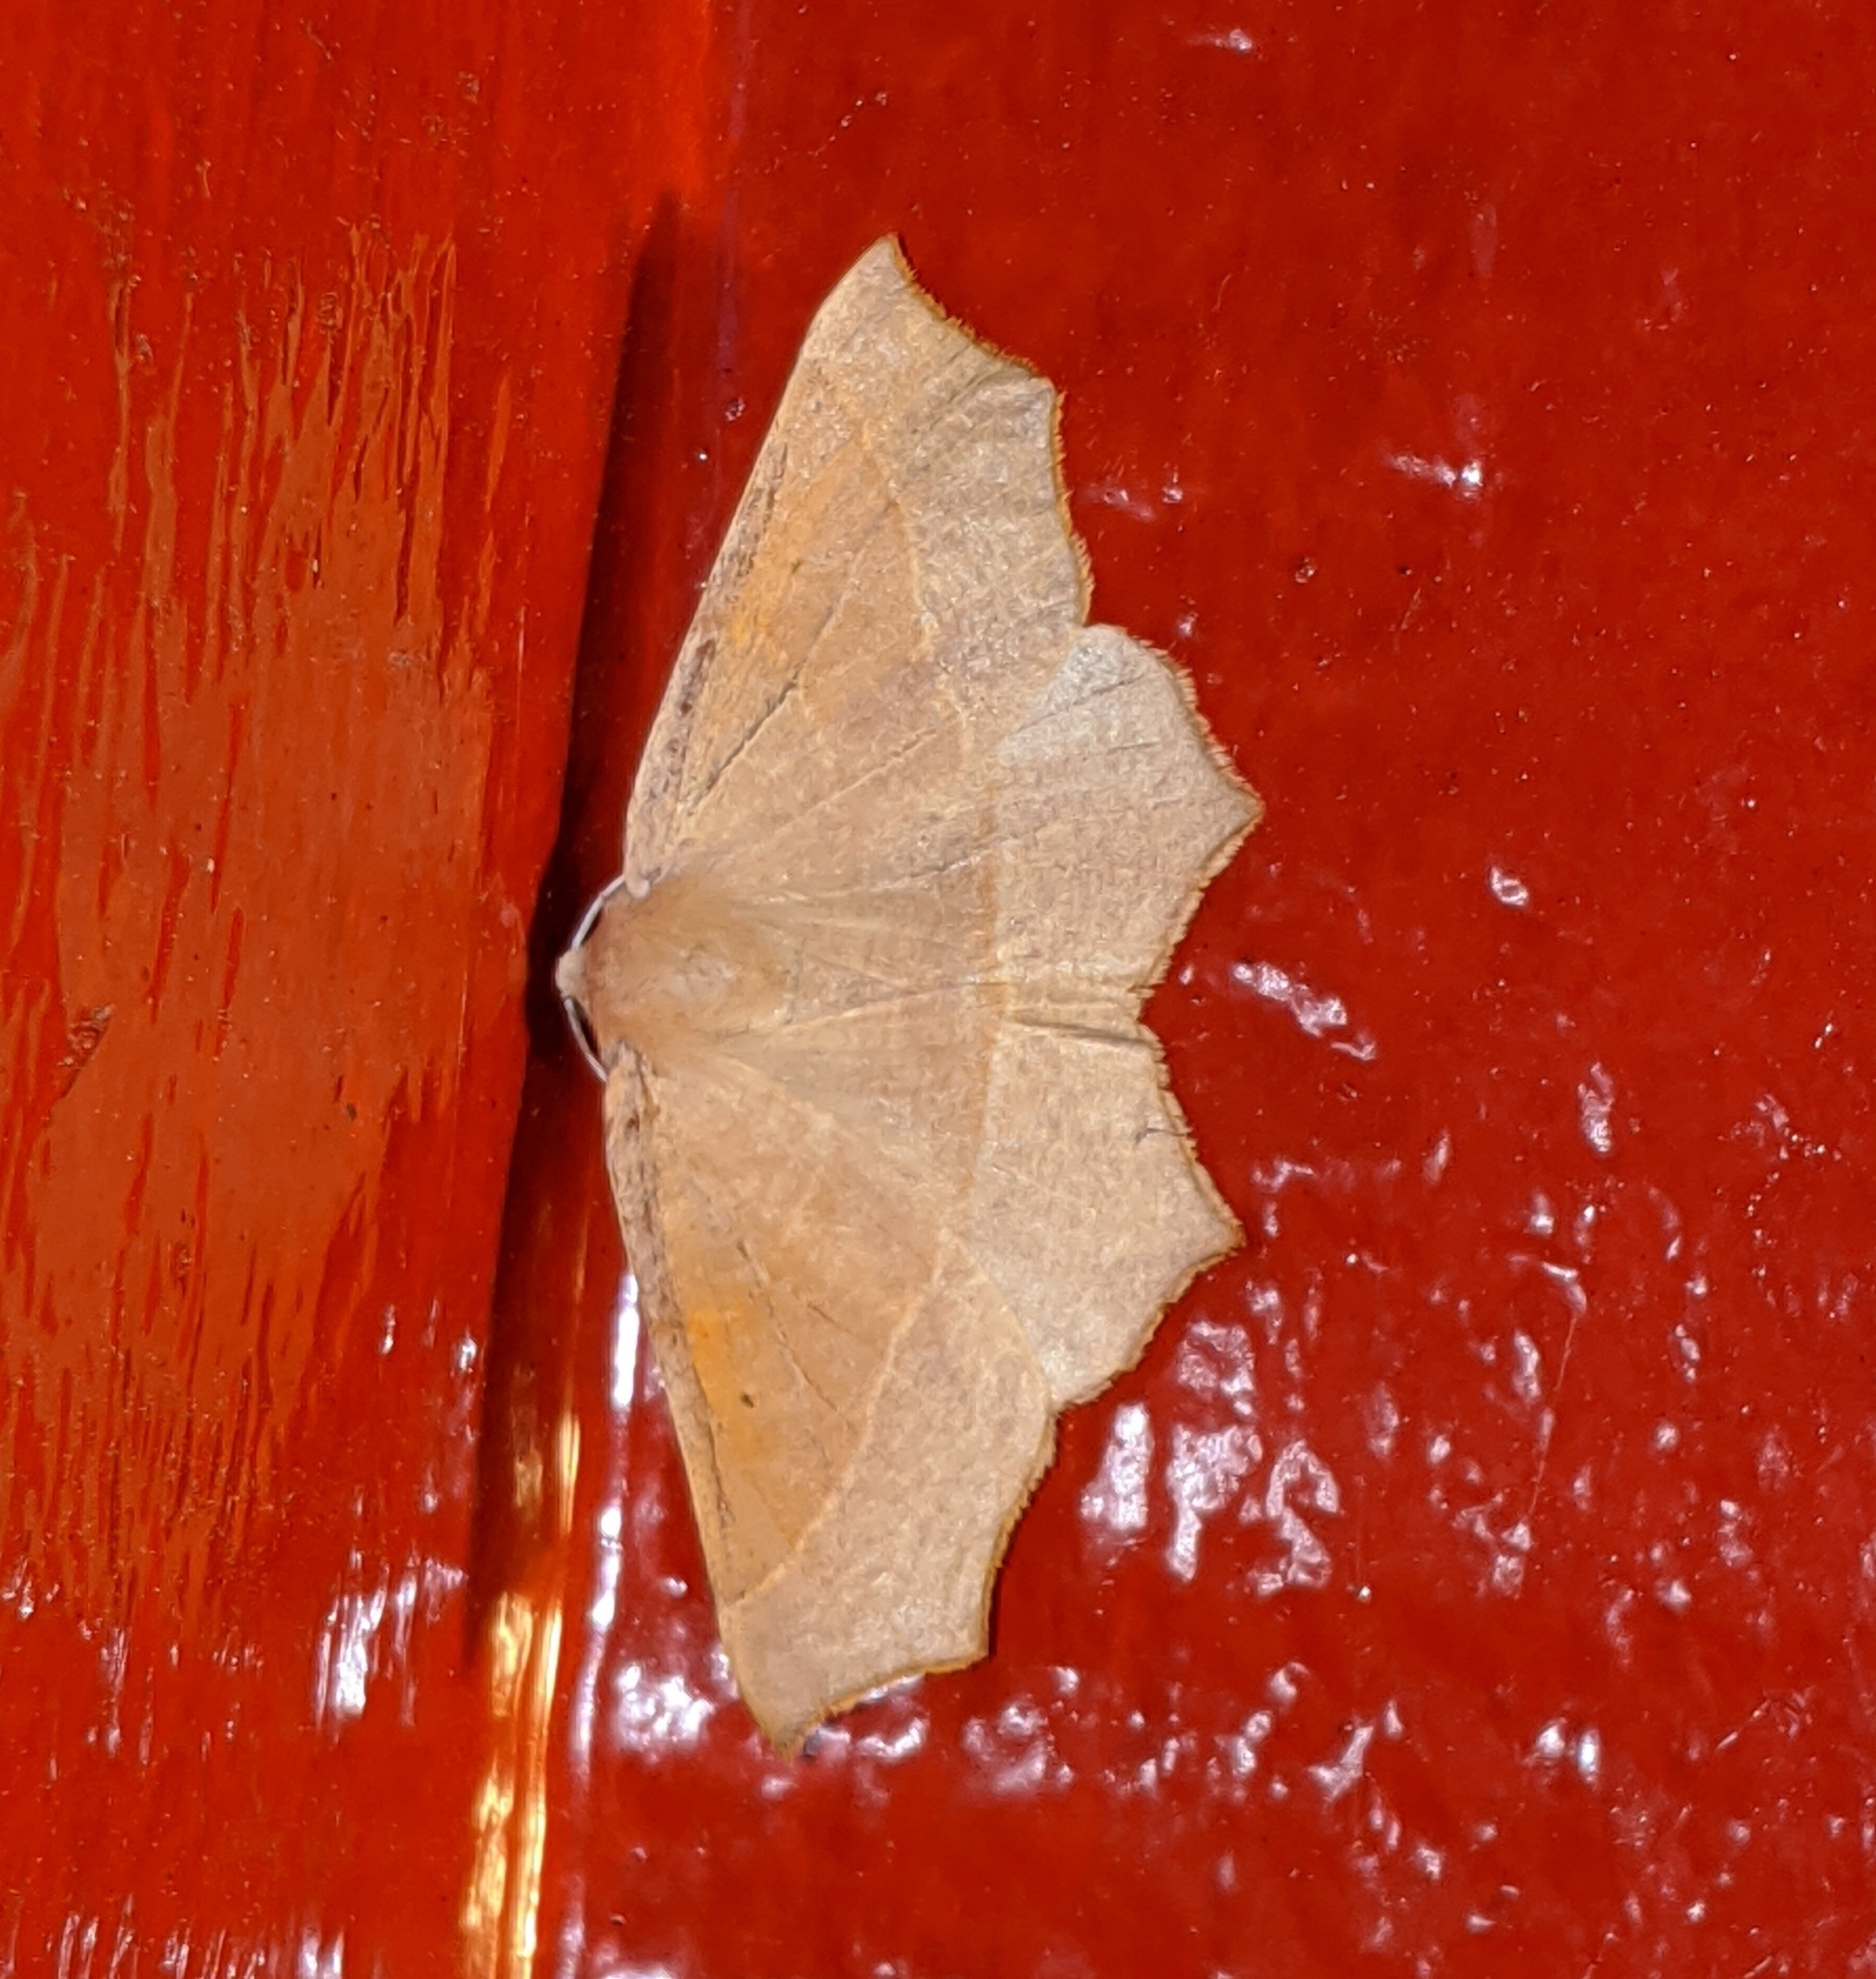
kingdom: Animalia
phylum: Arthropoda
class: Insecta
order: Lepidoptera
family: Geometridae
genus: Tetracis
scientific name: Tetracis cervinaria
